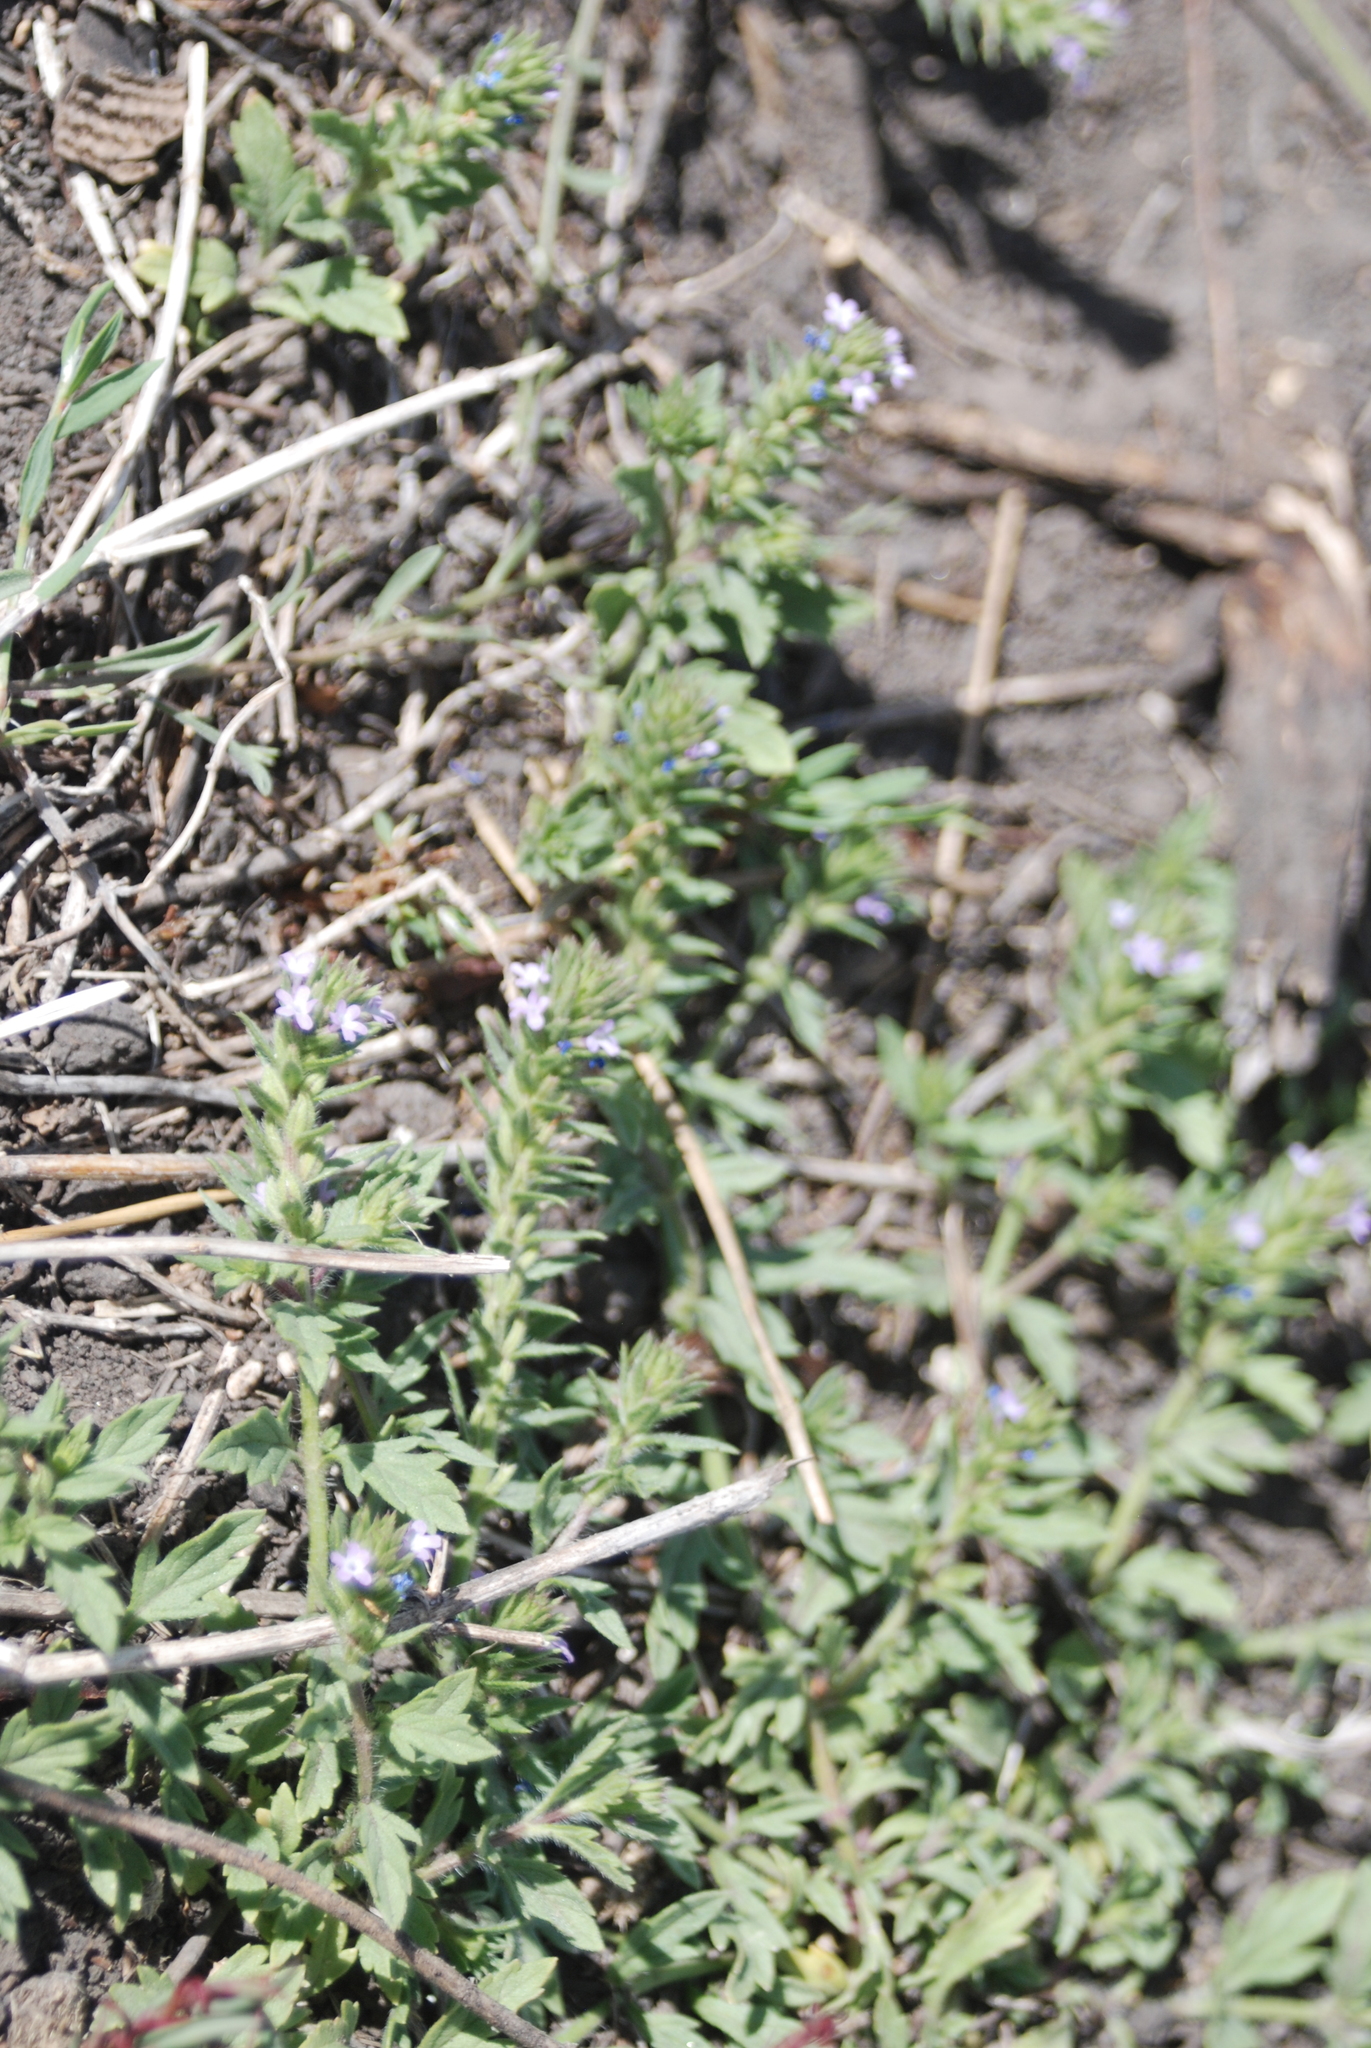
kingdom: Plantae
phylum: Tracheophyta
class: Magnoliopsida
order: Lamiales
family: Verbenaceae
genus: Verbena
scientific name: Verbena bracteata
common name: Bracted vervain
